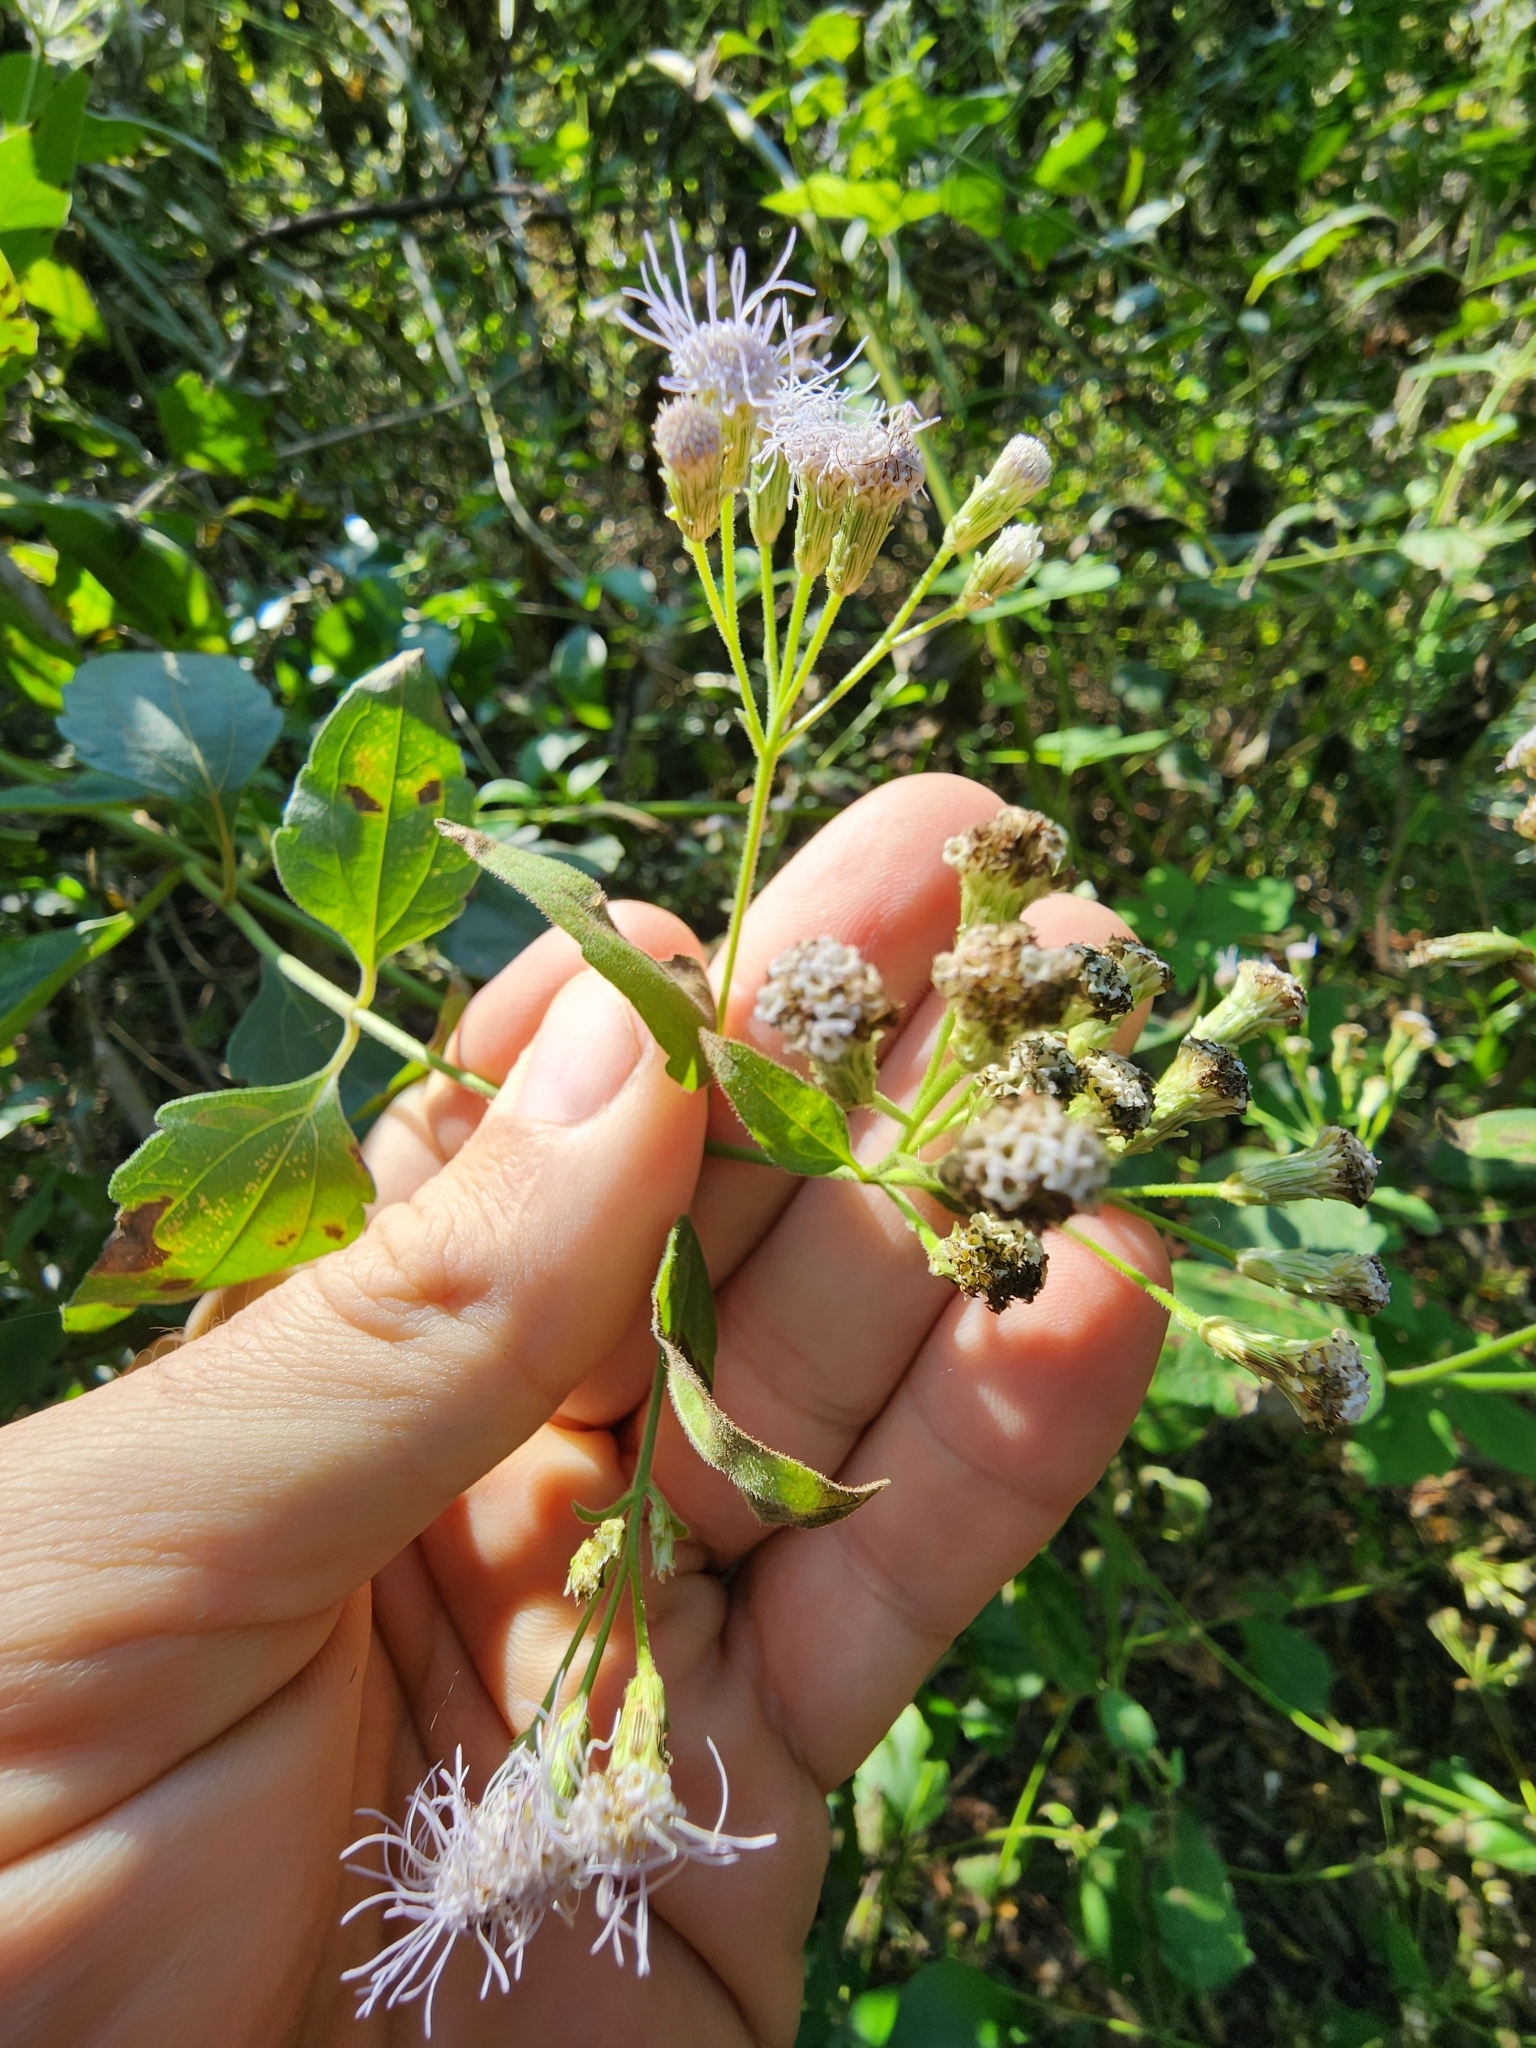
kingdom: Plantae
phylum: Tracheophyta
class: Magnoliopsida
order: Asterales
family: Asteraceae
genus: Chromolaena
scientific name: Chromolaena odorata
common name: Siamweed
